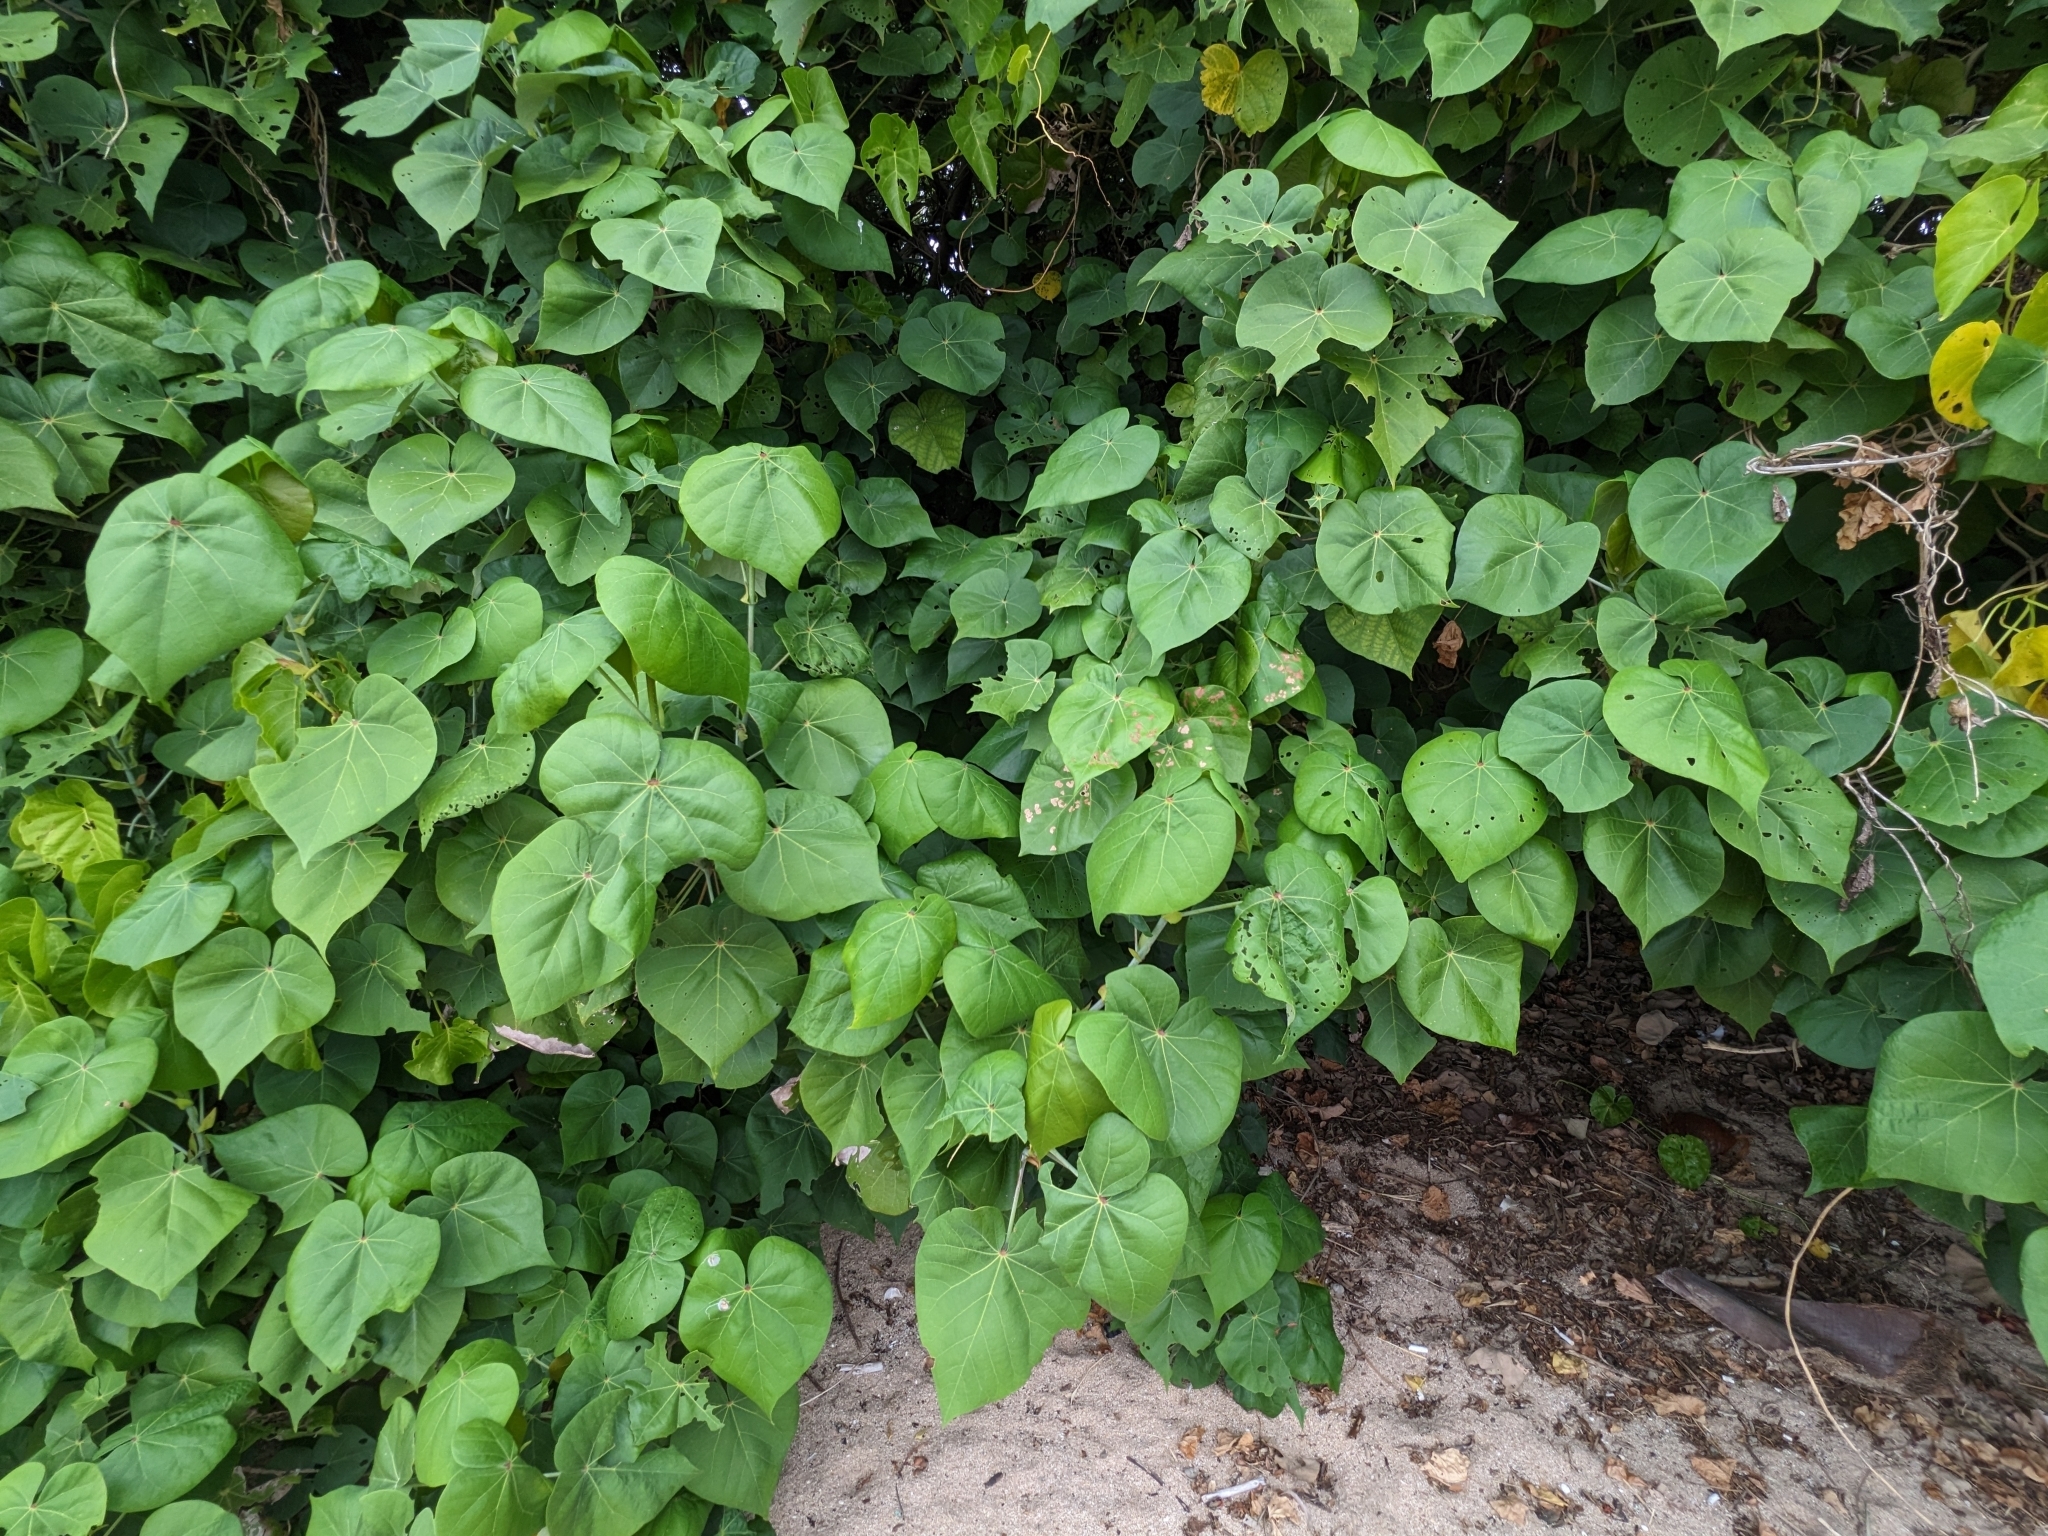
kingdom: Plantae
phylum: Tracheophyta
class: Magnoliopsida
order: Malvales
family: Malvaceae
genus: Talipariti
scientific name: Talipariti tiliaceum
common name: Sea hibiscus
